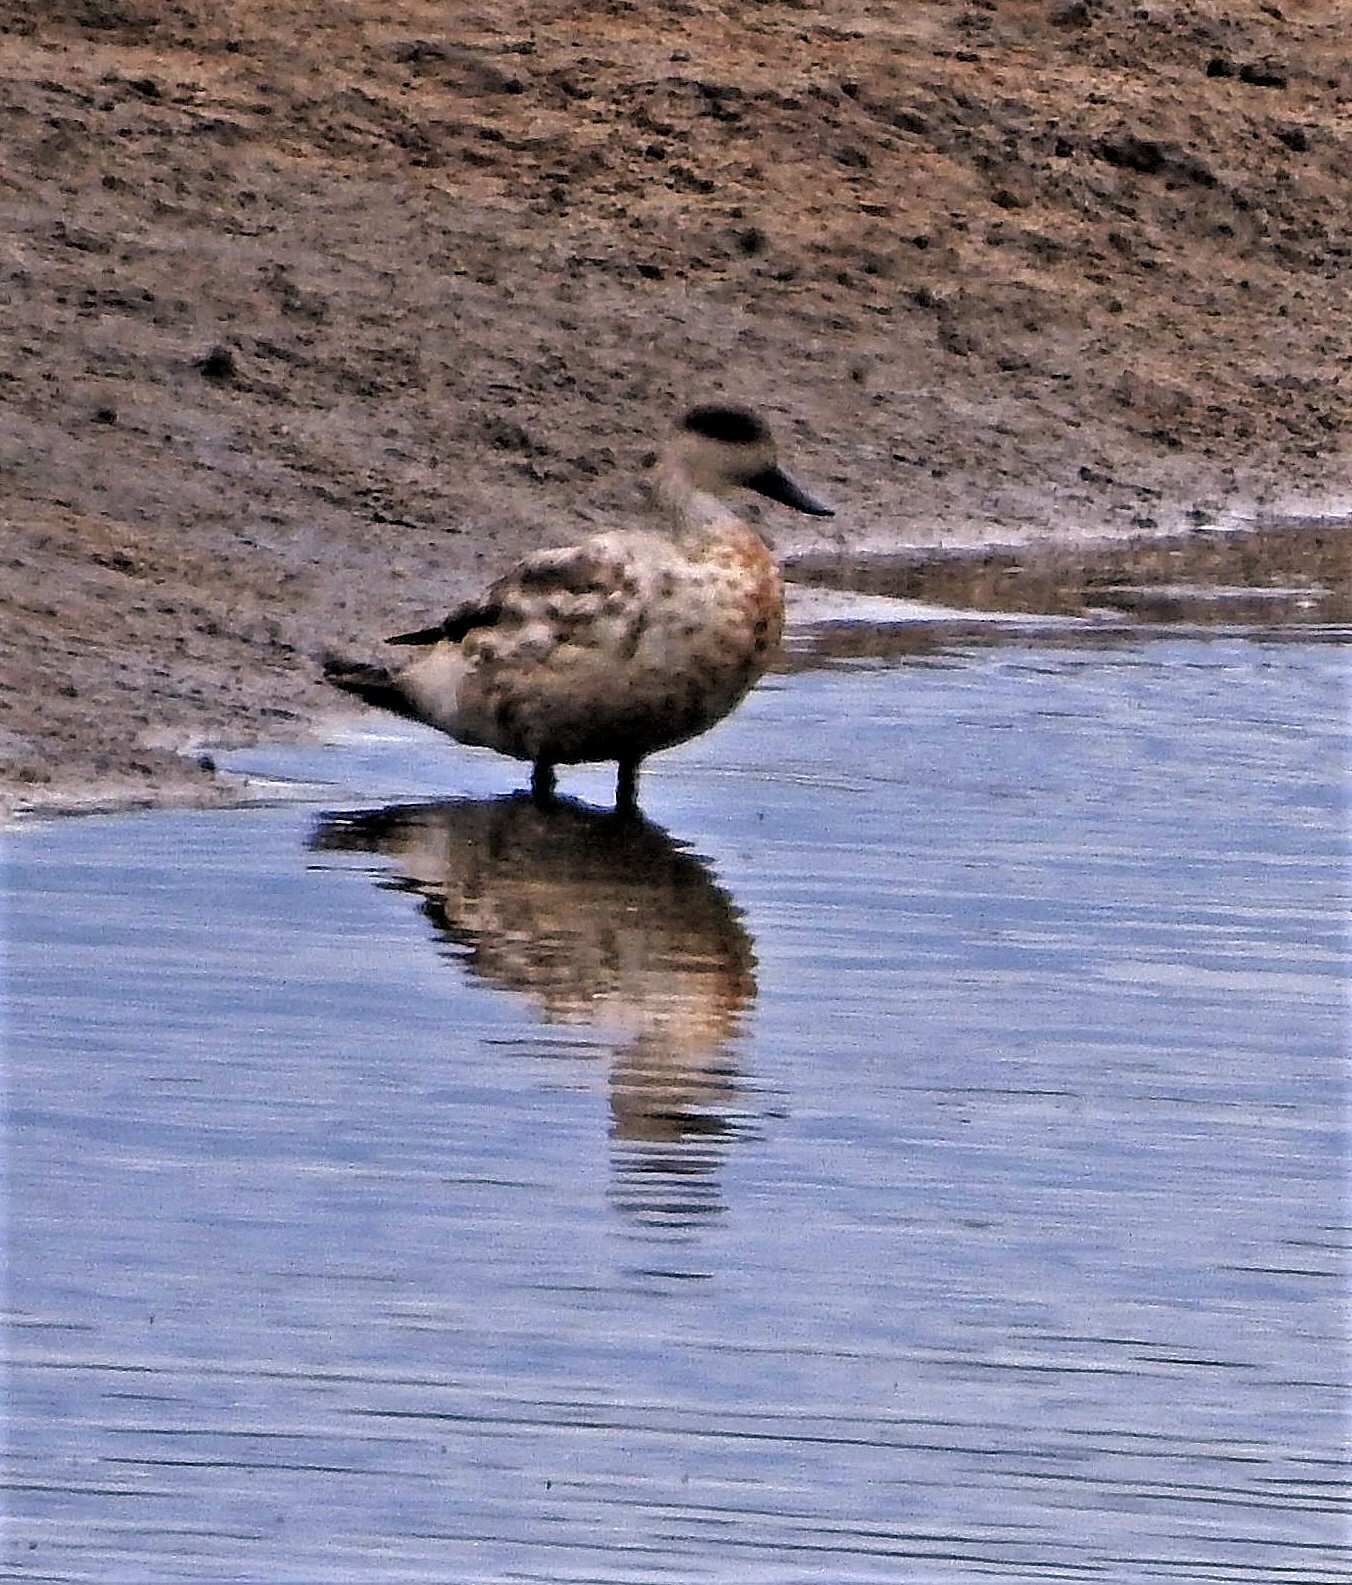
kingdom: Animalia
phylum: Chordata
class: Aves
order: Anseriformes
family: Anatidae
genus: Lophonetta
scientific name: Lophonetta specularioides
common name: Crested duck
